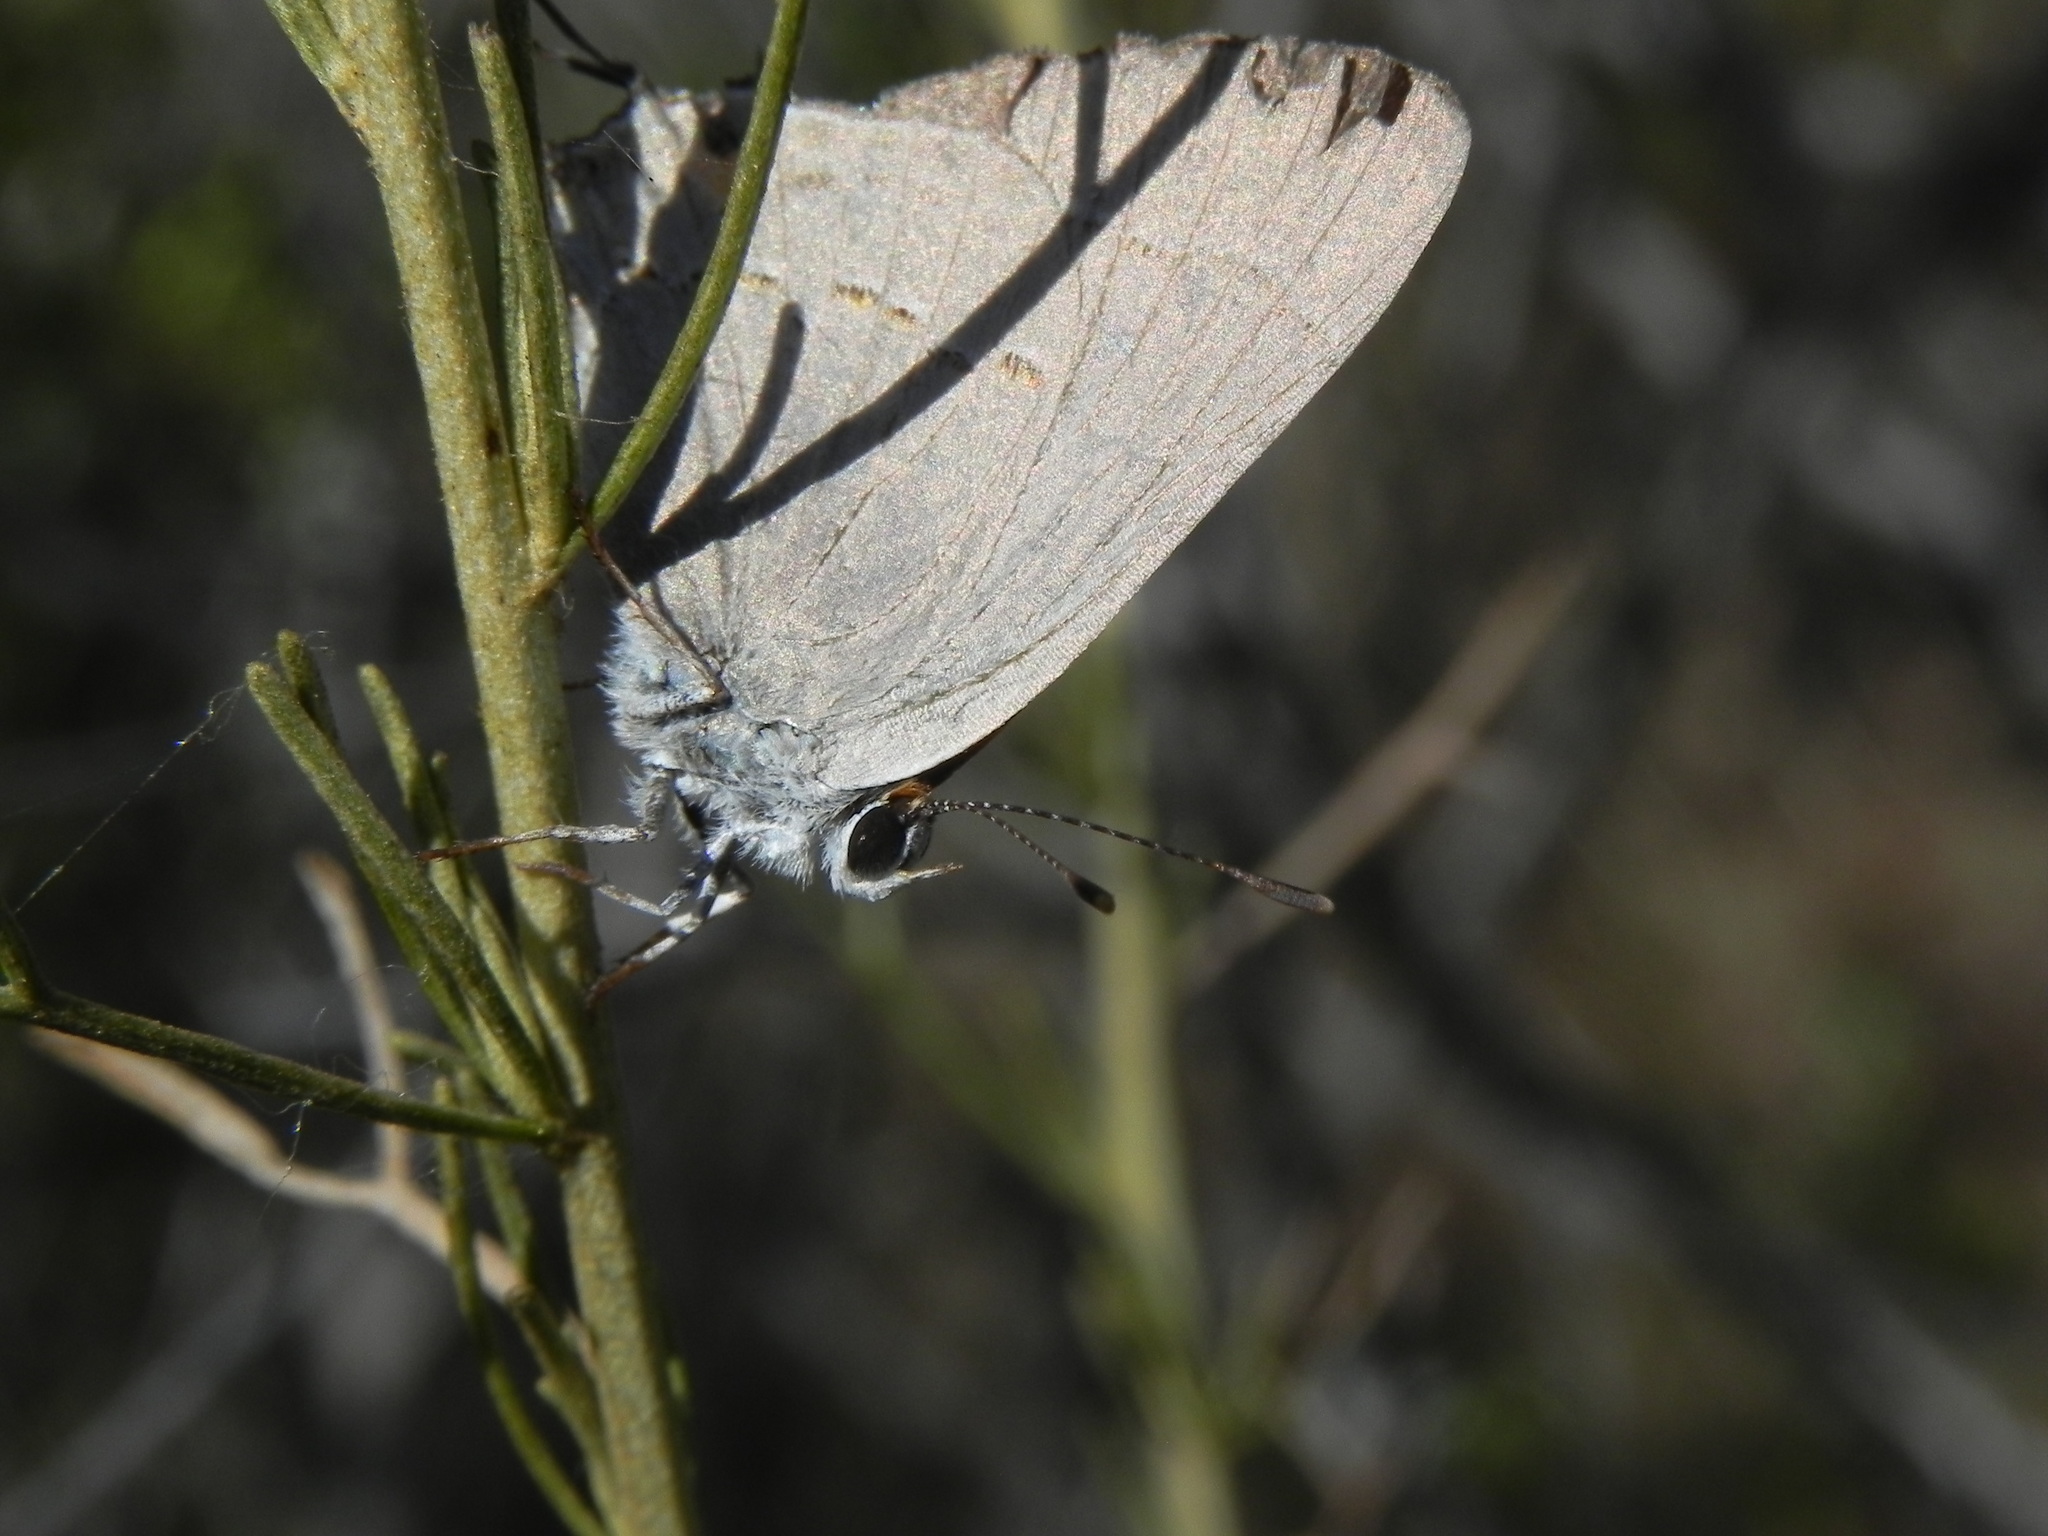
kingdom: Animalia
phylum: Arthropoda
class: Insecta
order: Lepidoptera
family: Lycaenidae
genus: Strymon
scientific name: Strymon melinus
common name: Gray hairstreak
